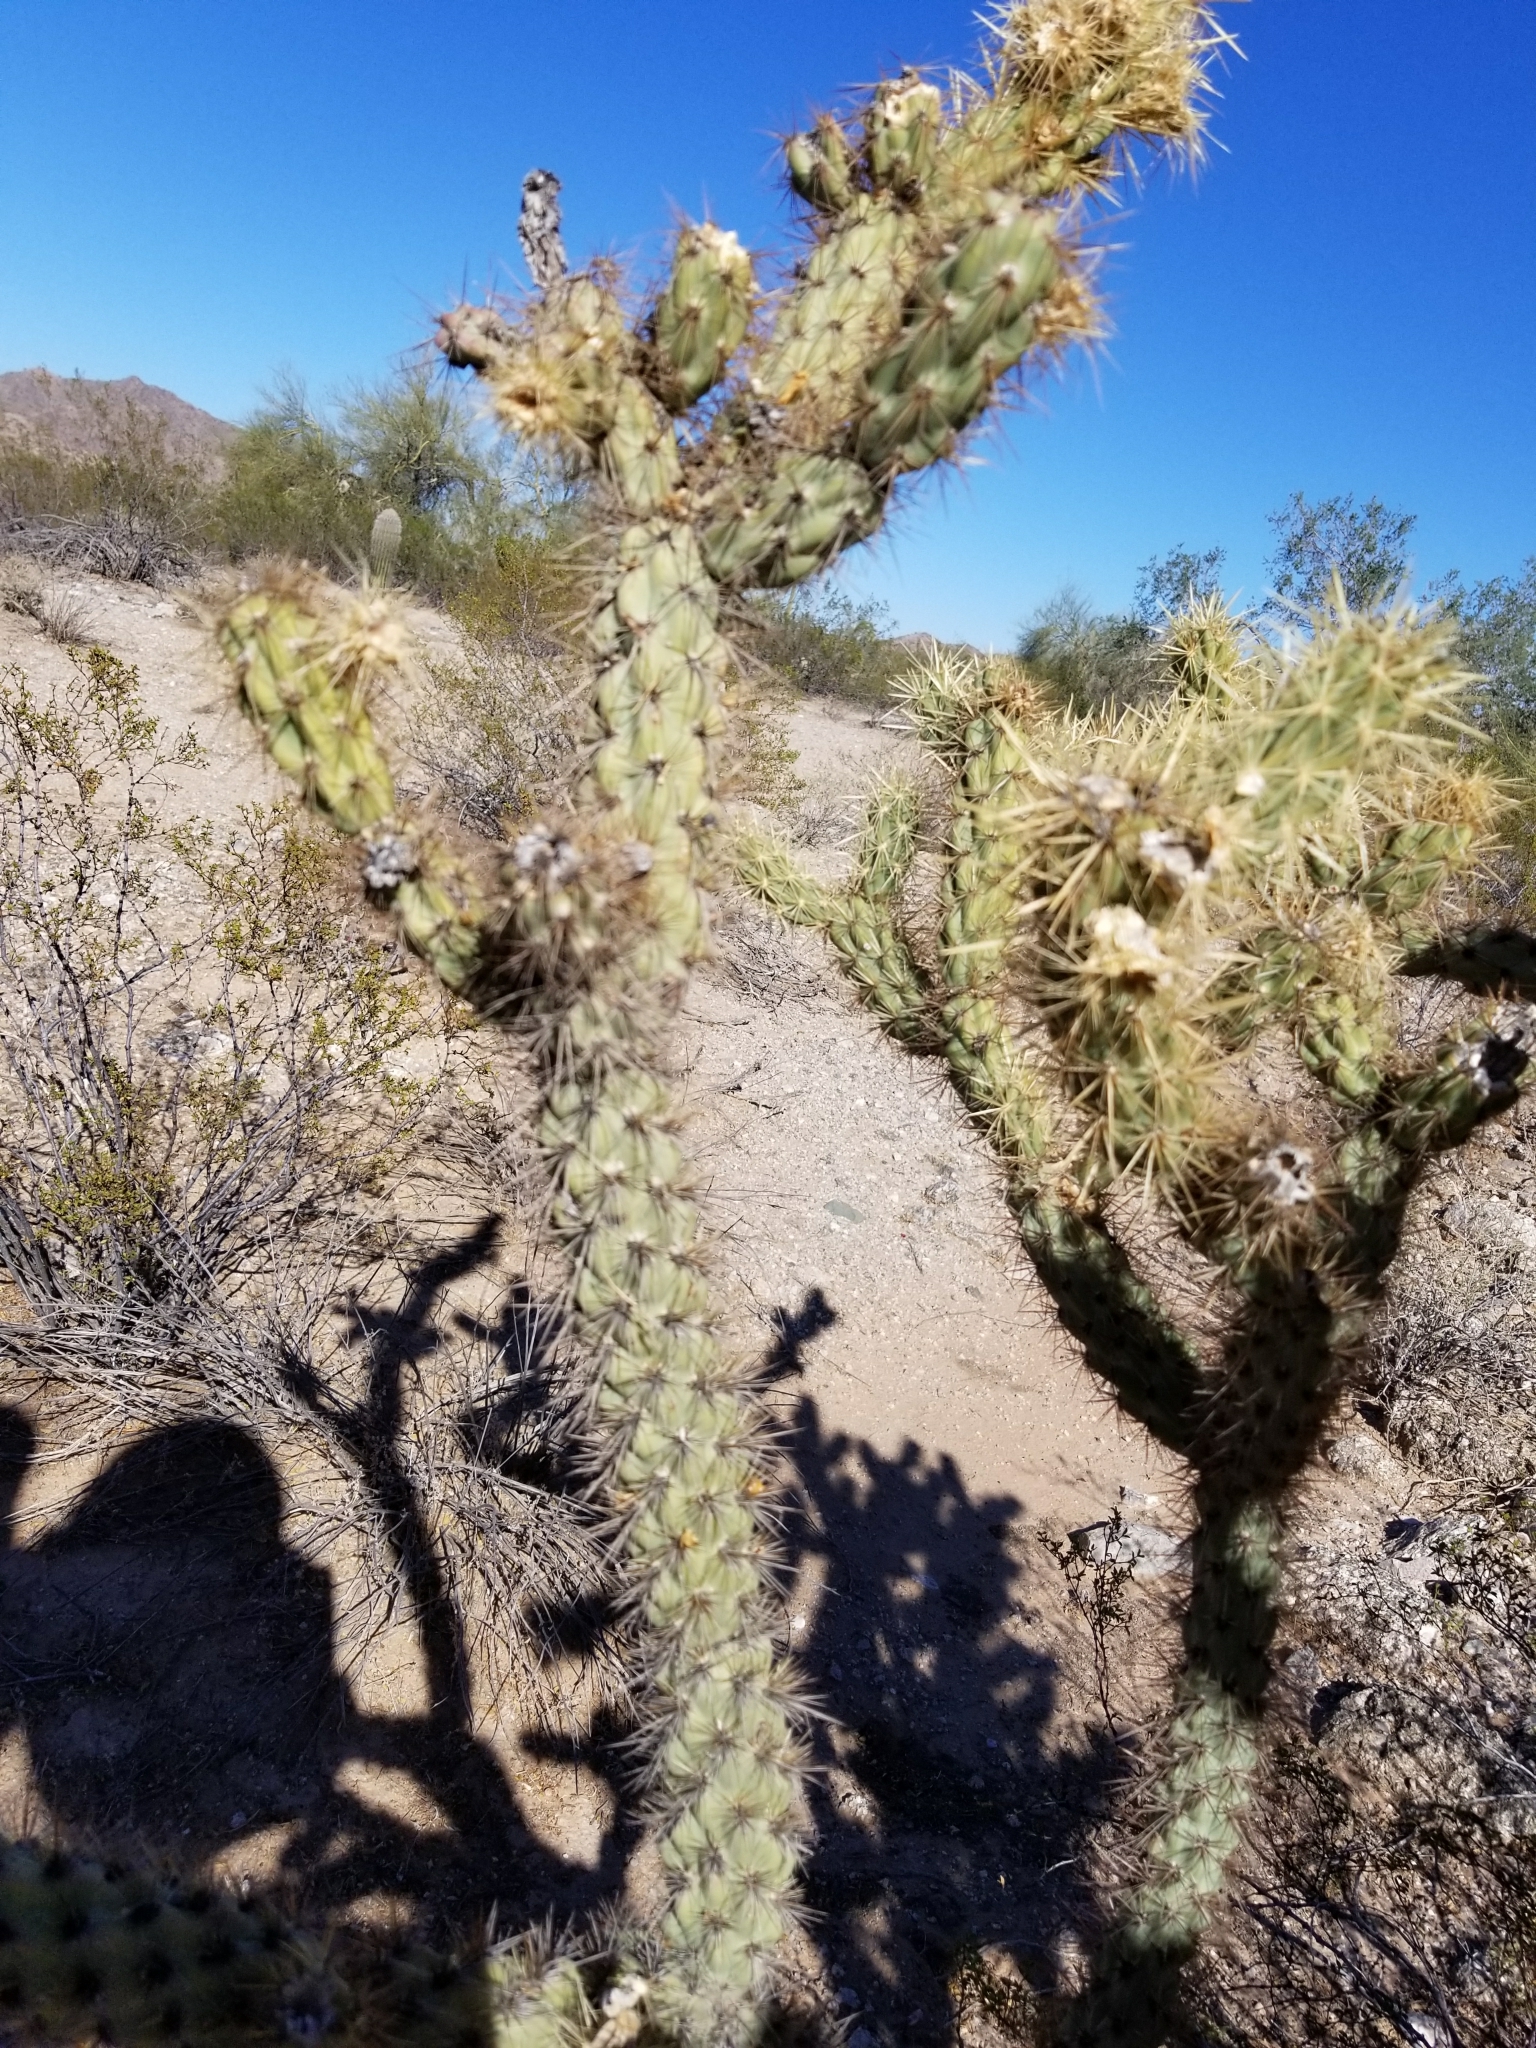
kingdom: Plantae
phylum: Tracheophyta
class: Magnoliopsida
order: Caryophyllales
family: Cactaceae
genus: Cylindropuntia
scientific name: Cylindropuntia acanthocarpa
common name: Buckhorn cholla
